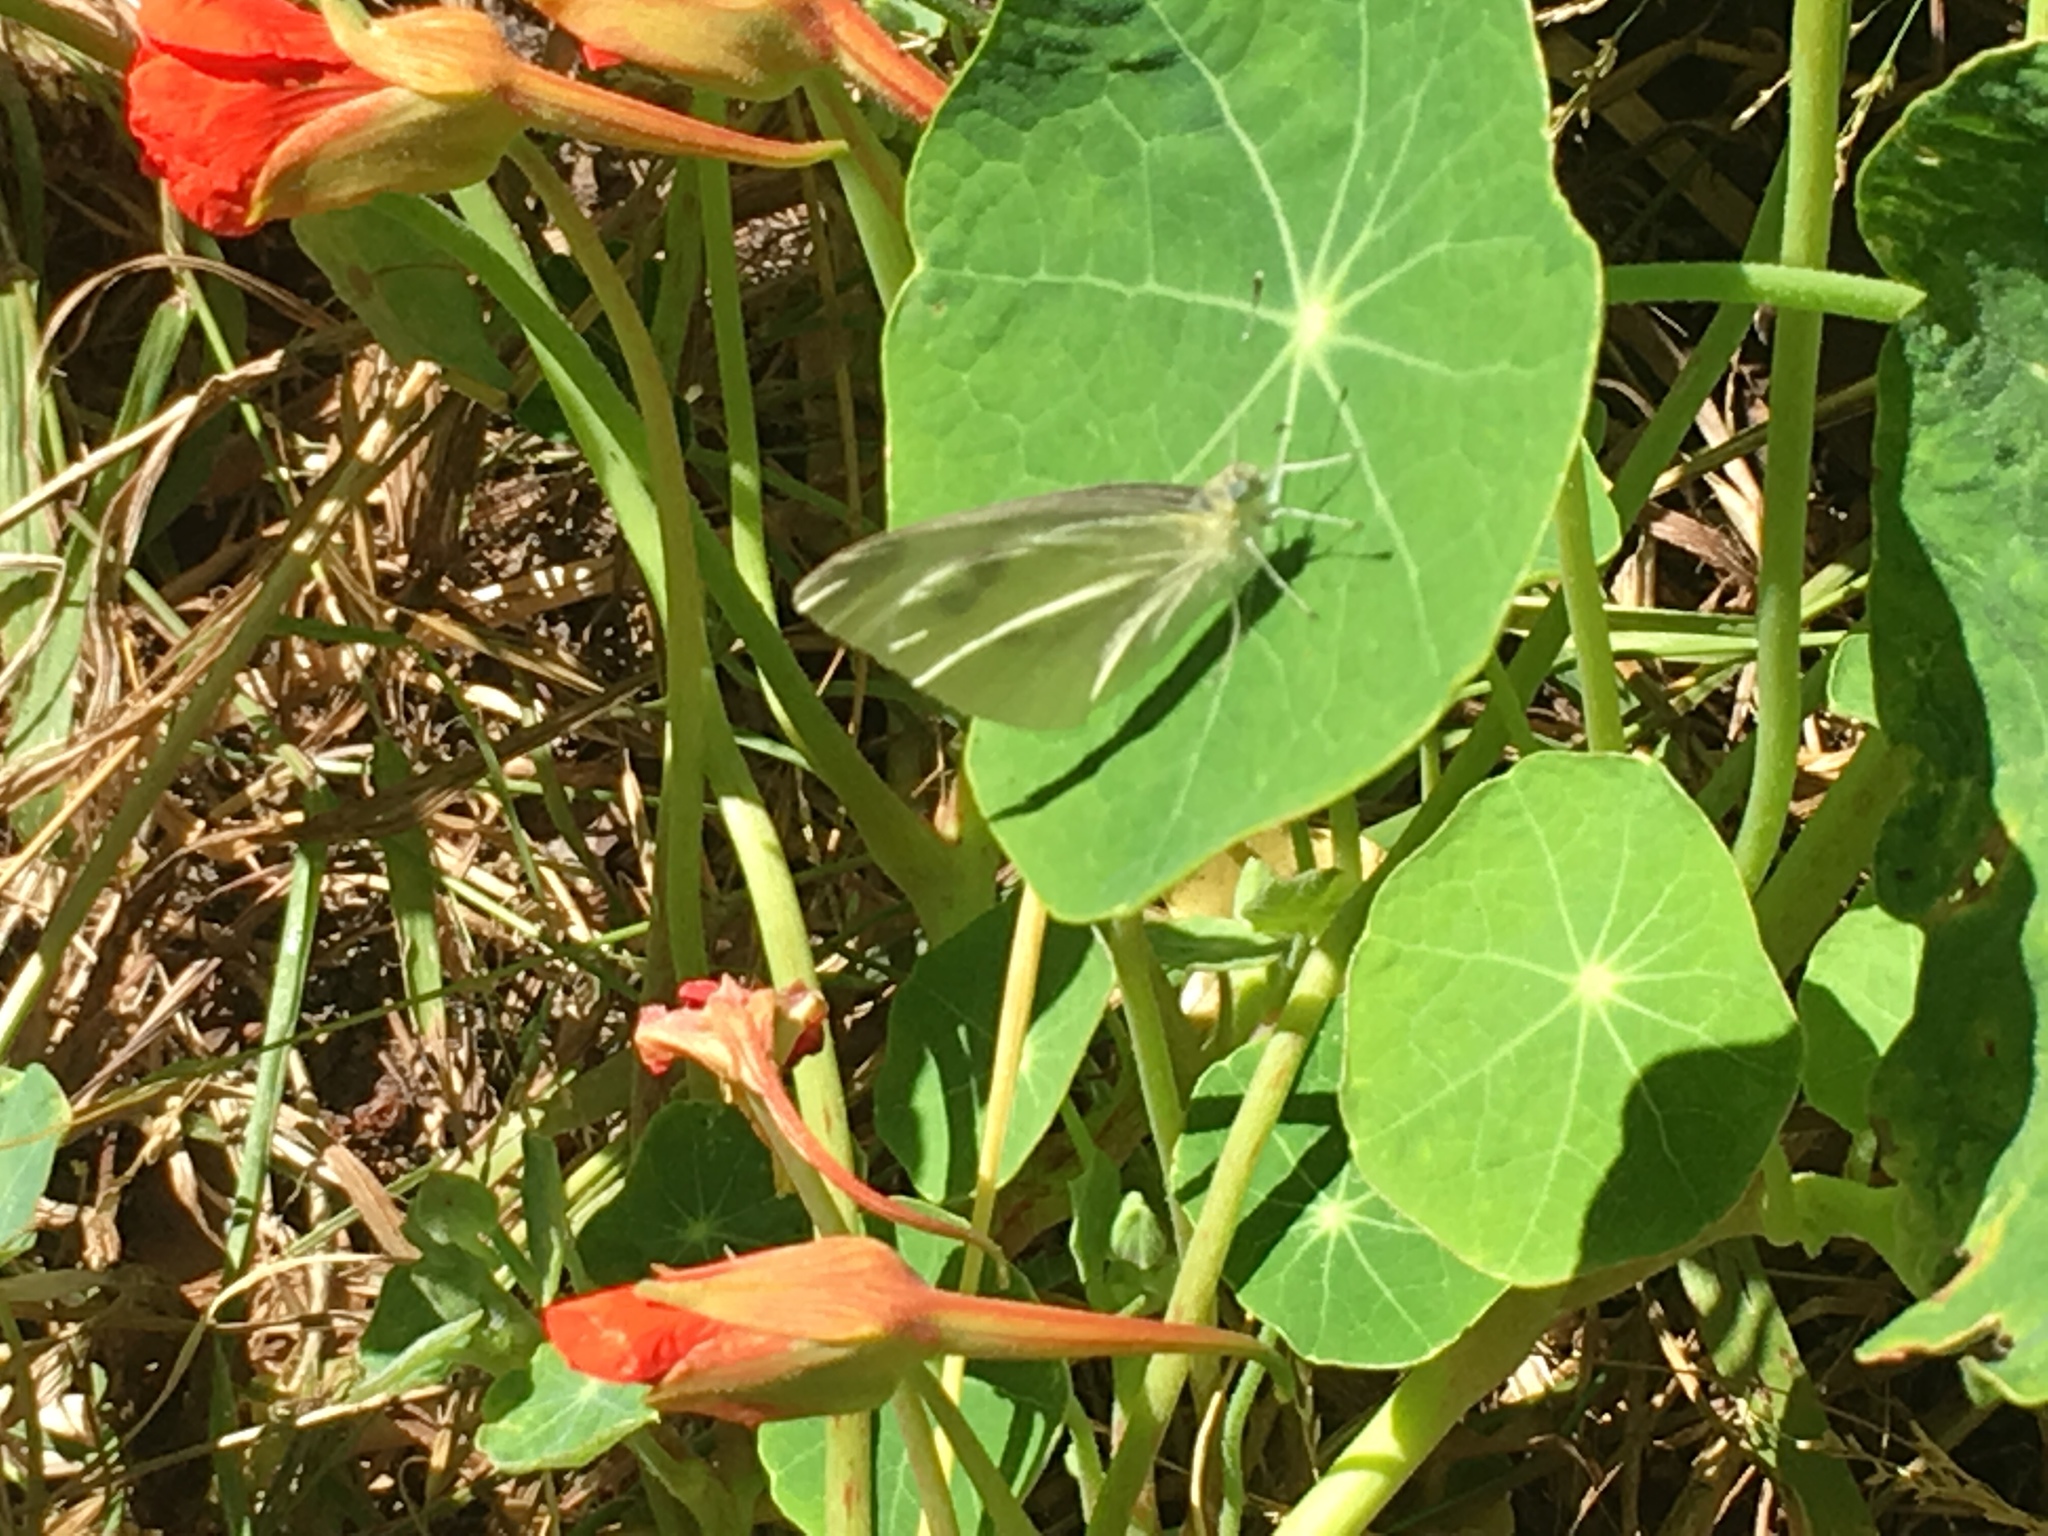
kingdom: Animalia
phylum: Arthropoda
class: Insecta
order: Lepidoptera
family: Pieridae
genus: Pieris
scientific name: Pieris rapae
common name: Small white
